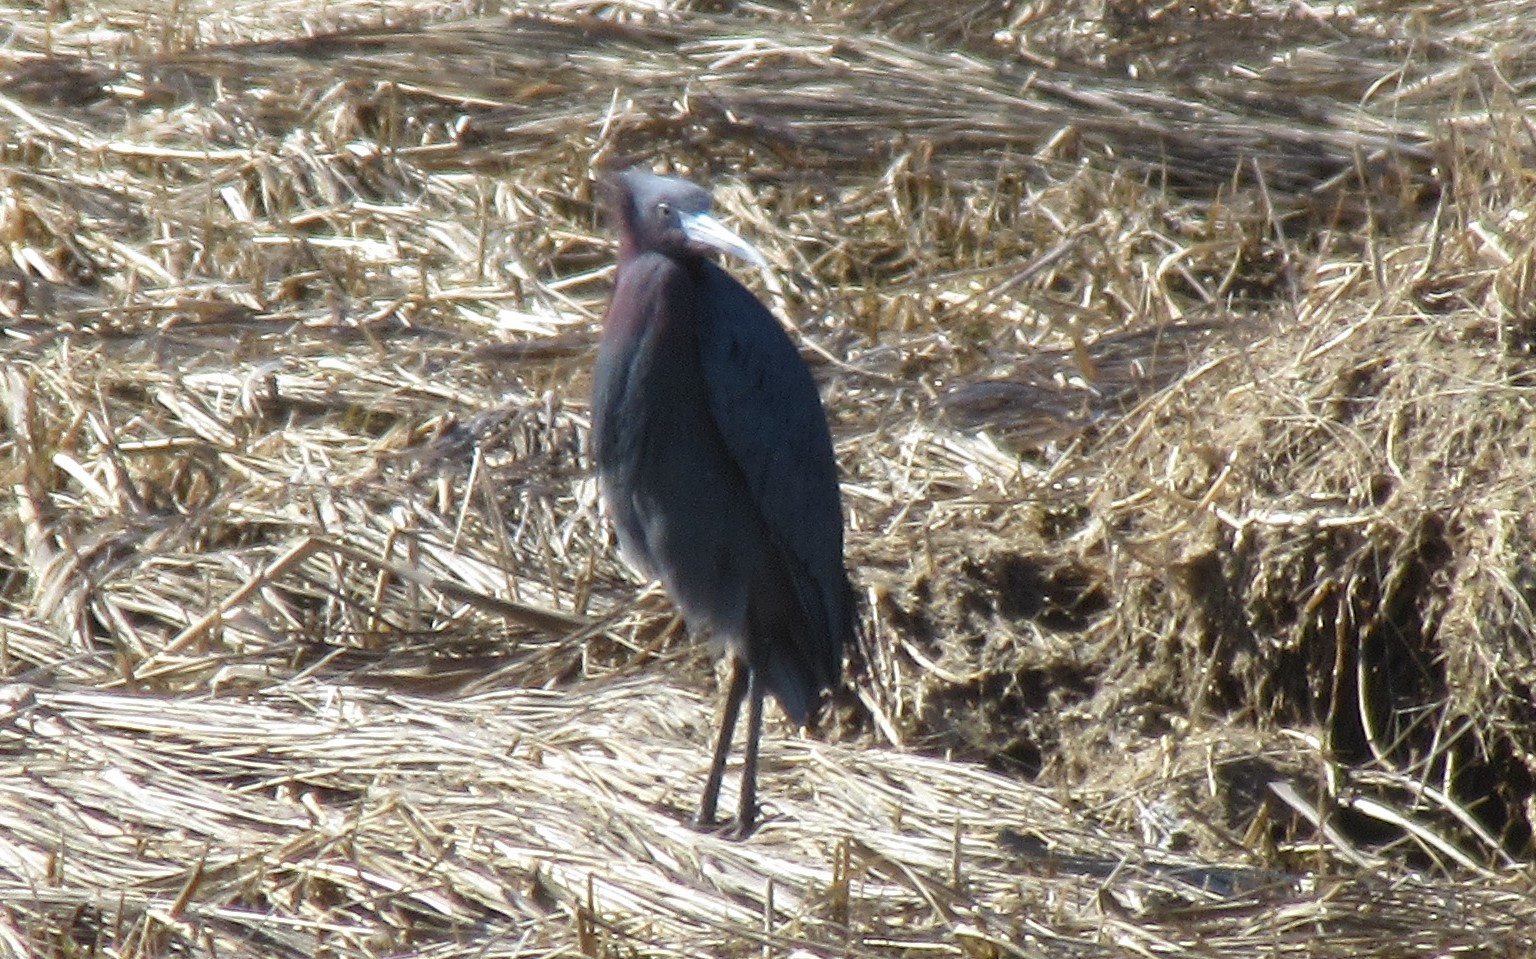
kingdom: Animalia
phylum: Chordata
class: Aves
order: Pelecaniformes
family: Ardeidae
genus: Egretta
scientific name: Egretta caerulea
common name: Little blue heron
